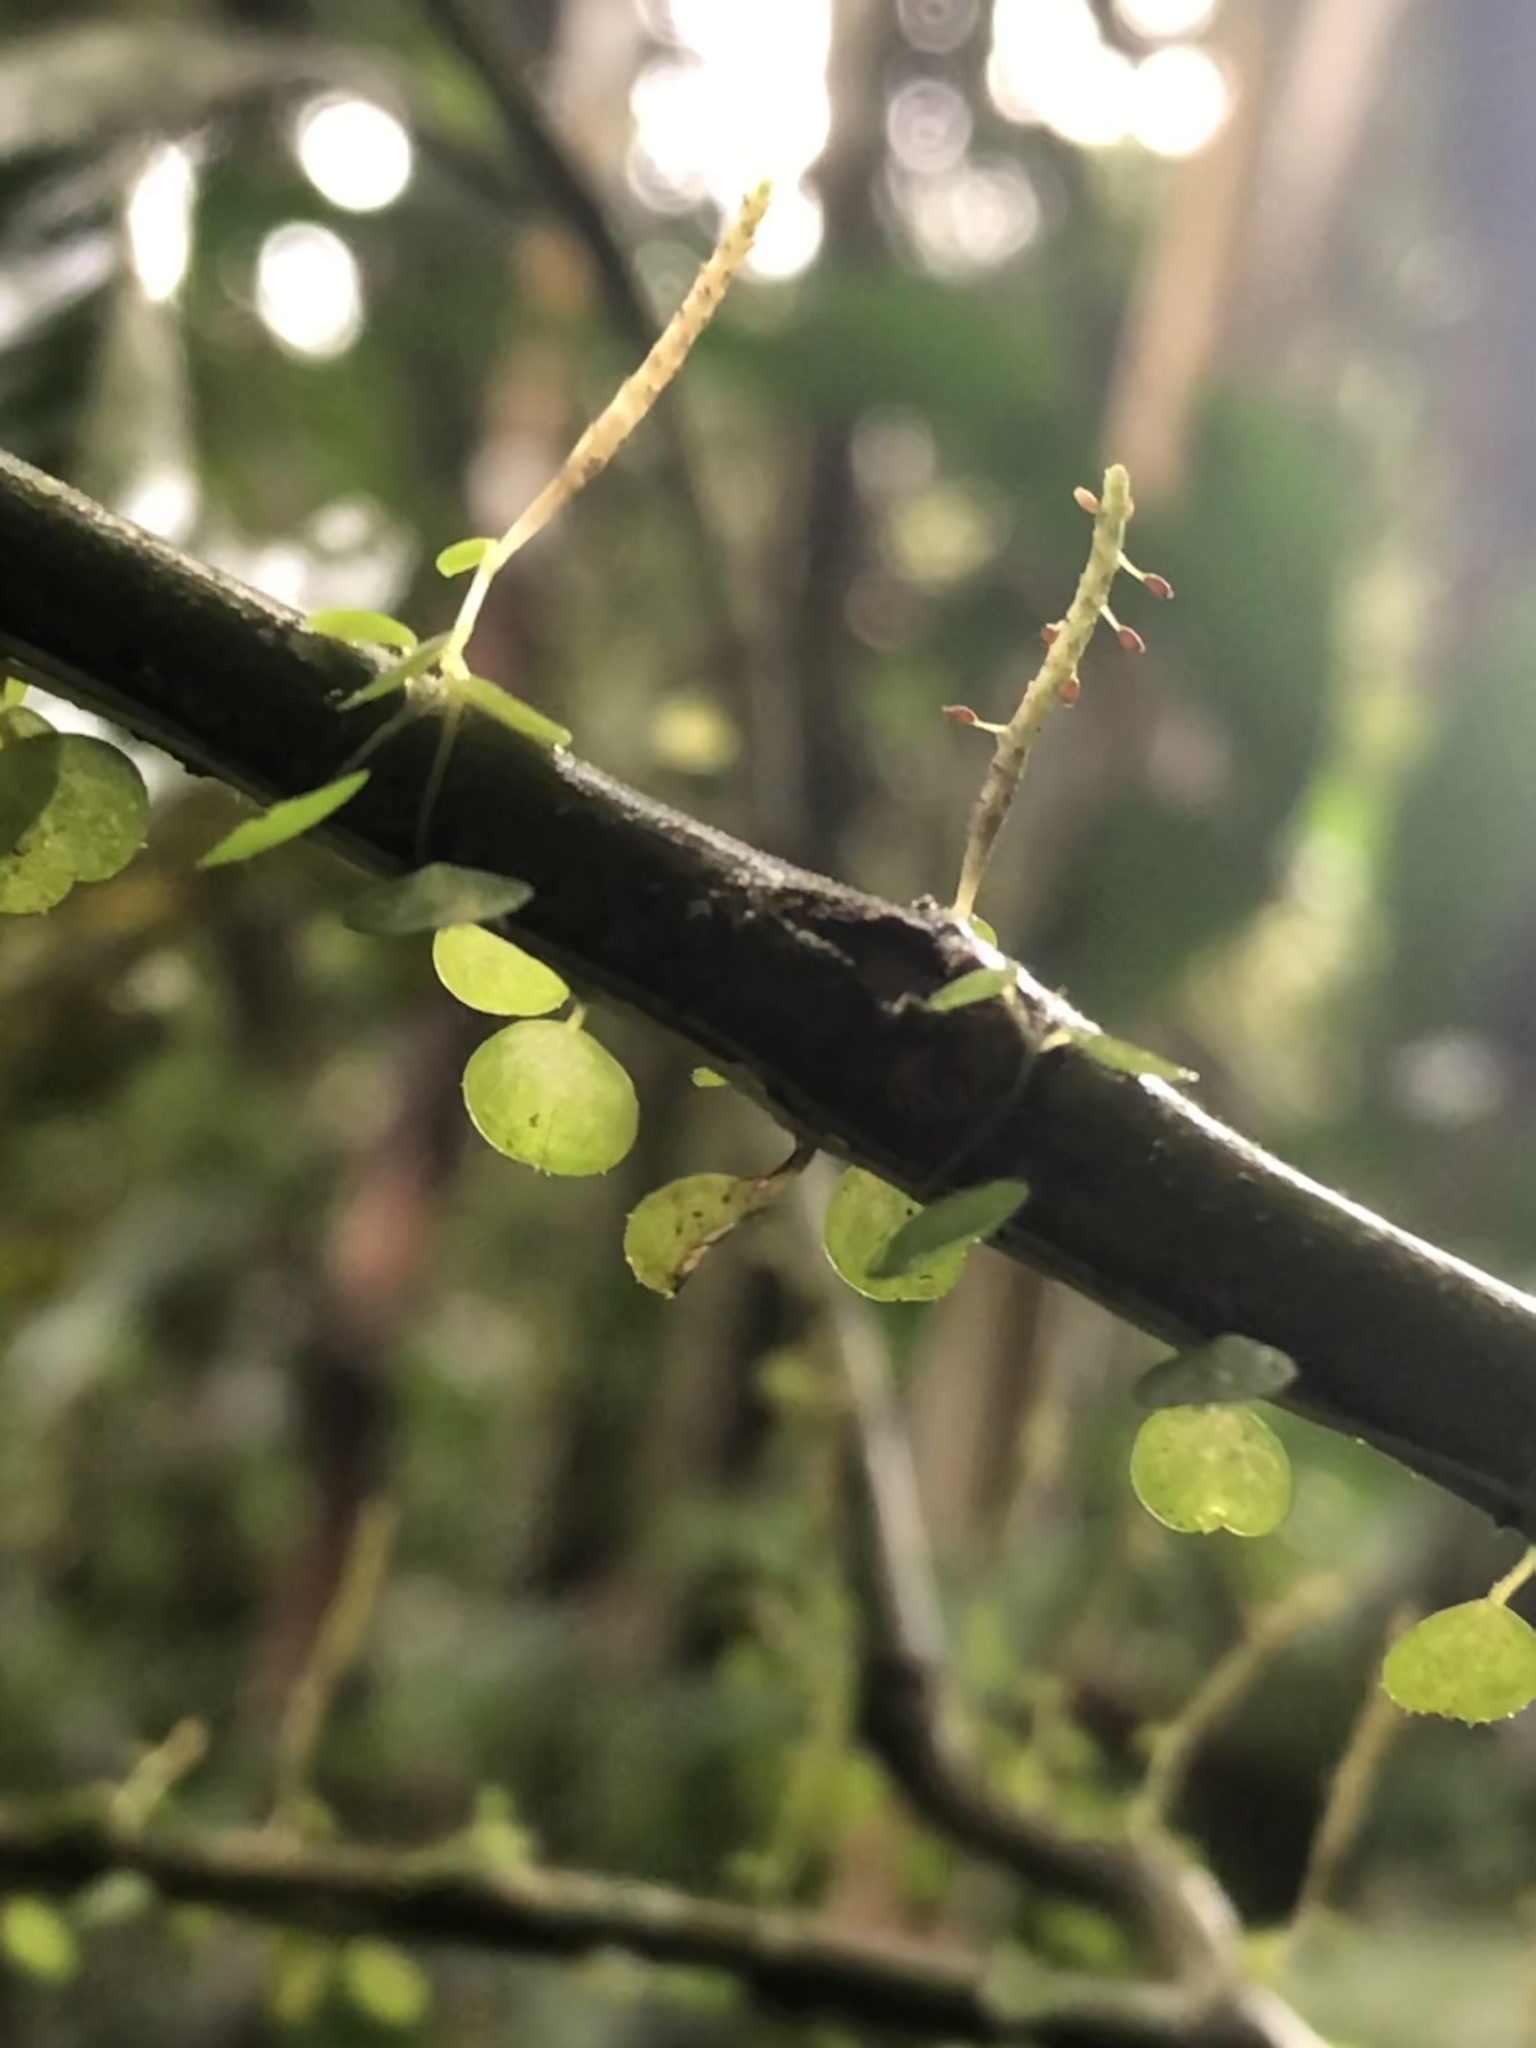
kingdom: Plantae
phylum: Tracheophyta
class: Magnoliopsida
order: Piperales
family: Piperaceae
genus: Peperomia
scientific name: Peperomia emarginella
